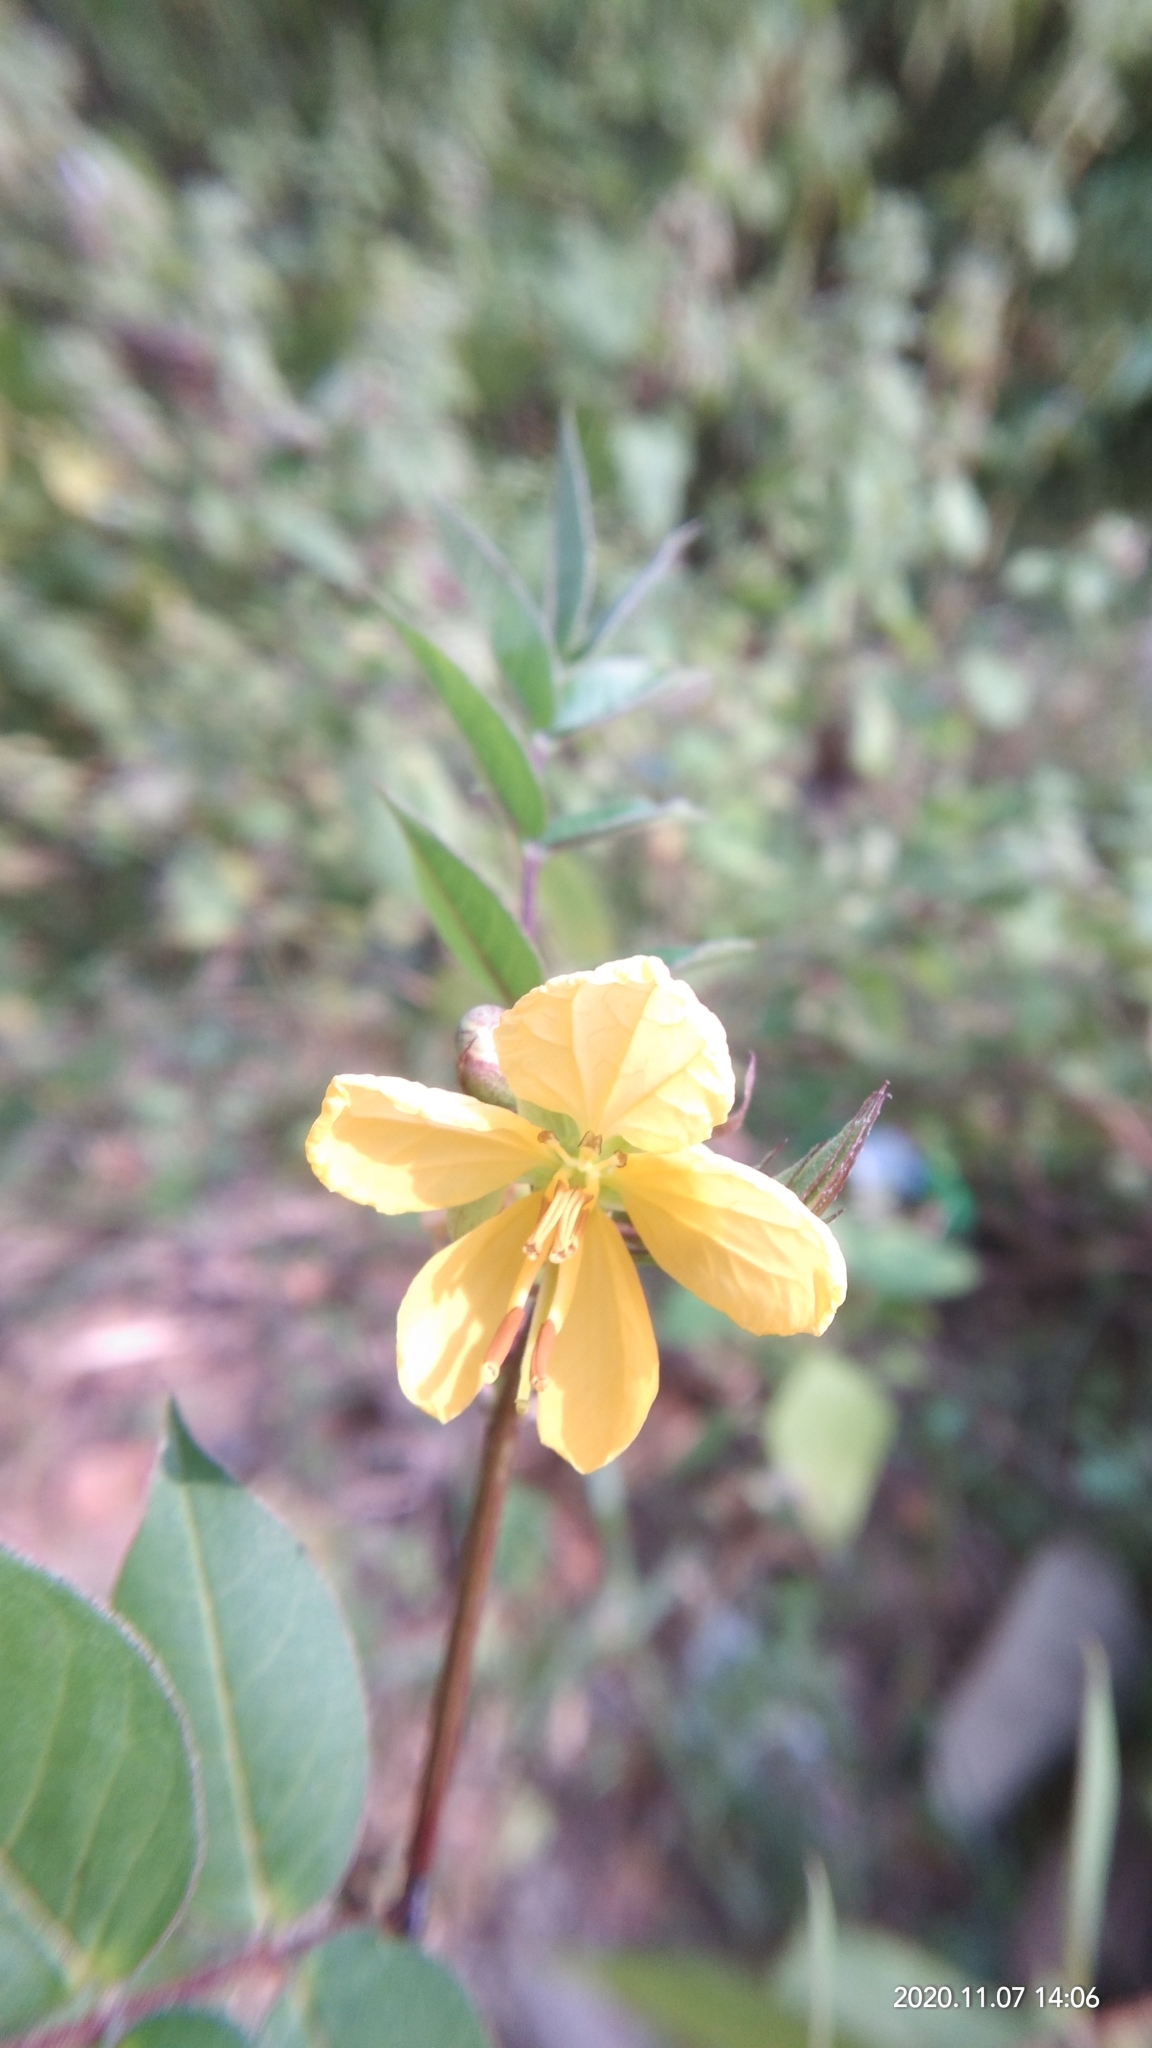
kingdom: Plantae
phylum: Tracheophyta
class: Magnoliopsida
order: Fabales
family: Fabaceae
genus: Senna
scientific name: Senna occidentalis
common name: Septicweed
